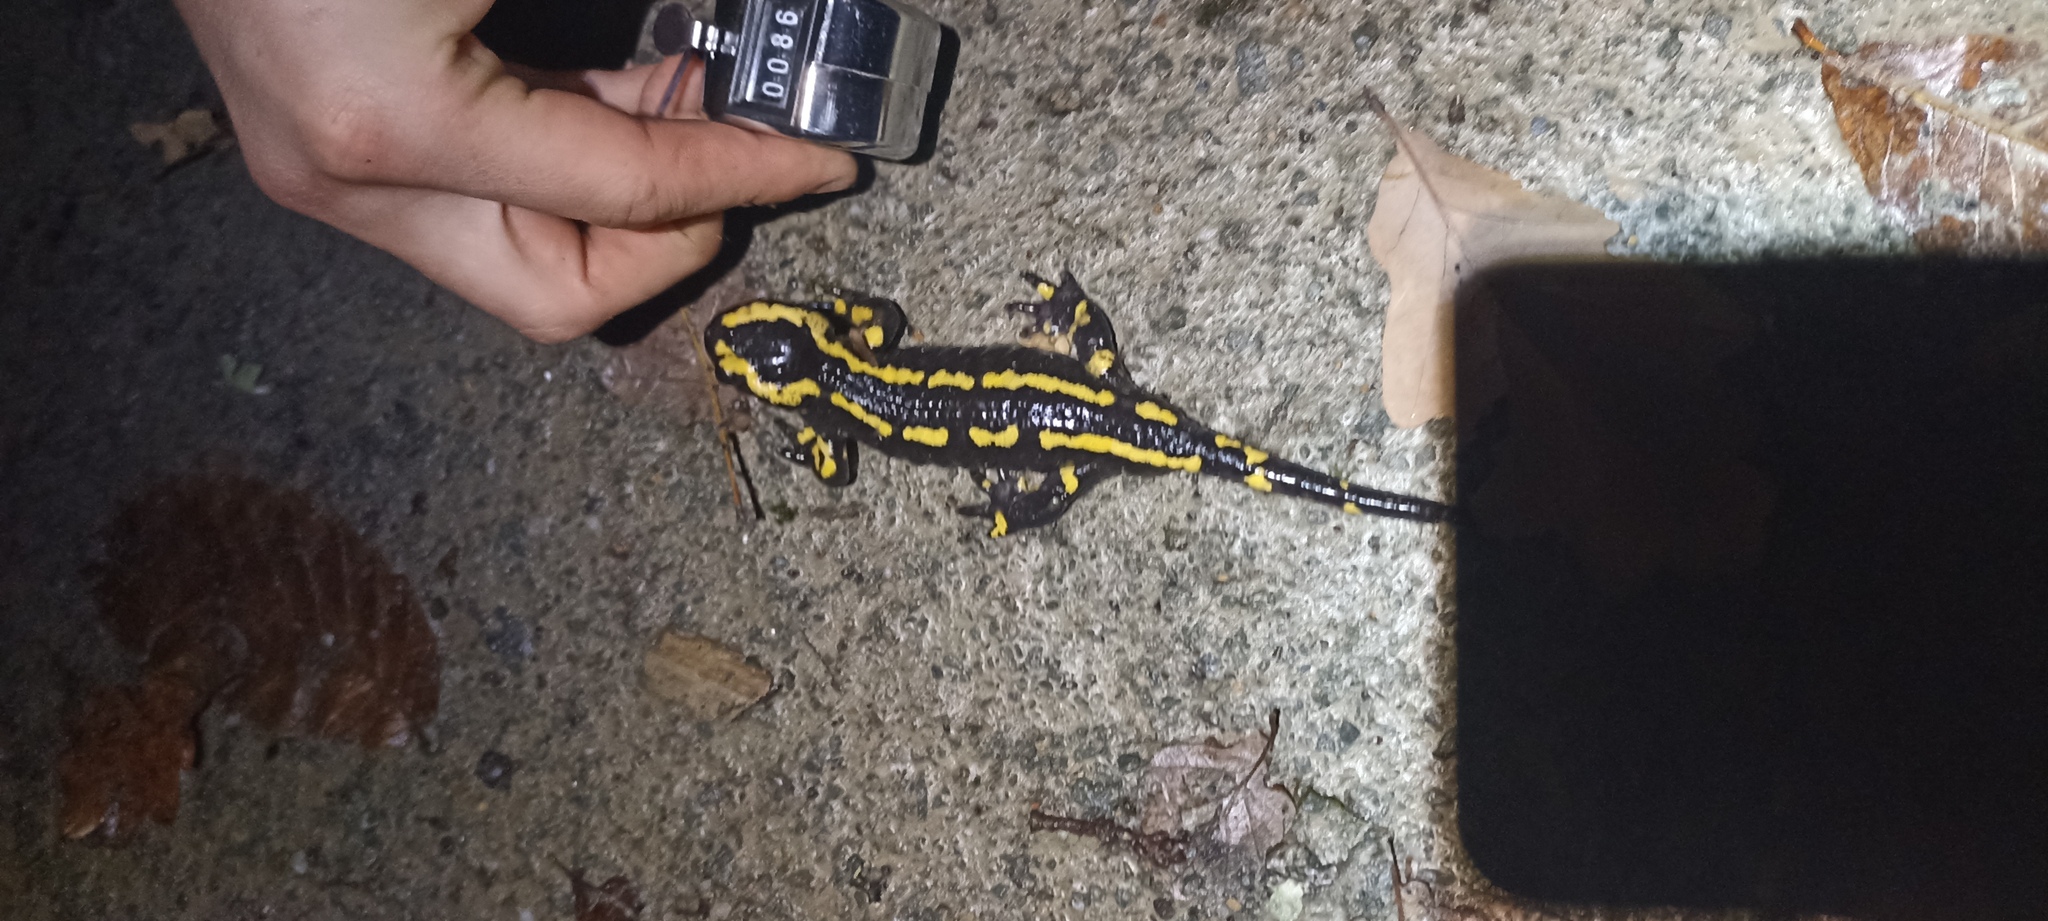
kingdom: Animalia
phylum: Chordata
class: Amphibia
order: Caudata
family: Salamandridae
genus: Salamandra
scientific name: Salamandra salamandra
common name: Fire salamander
